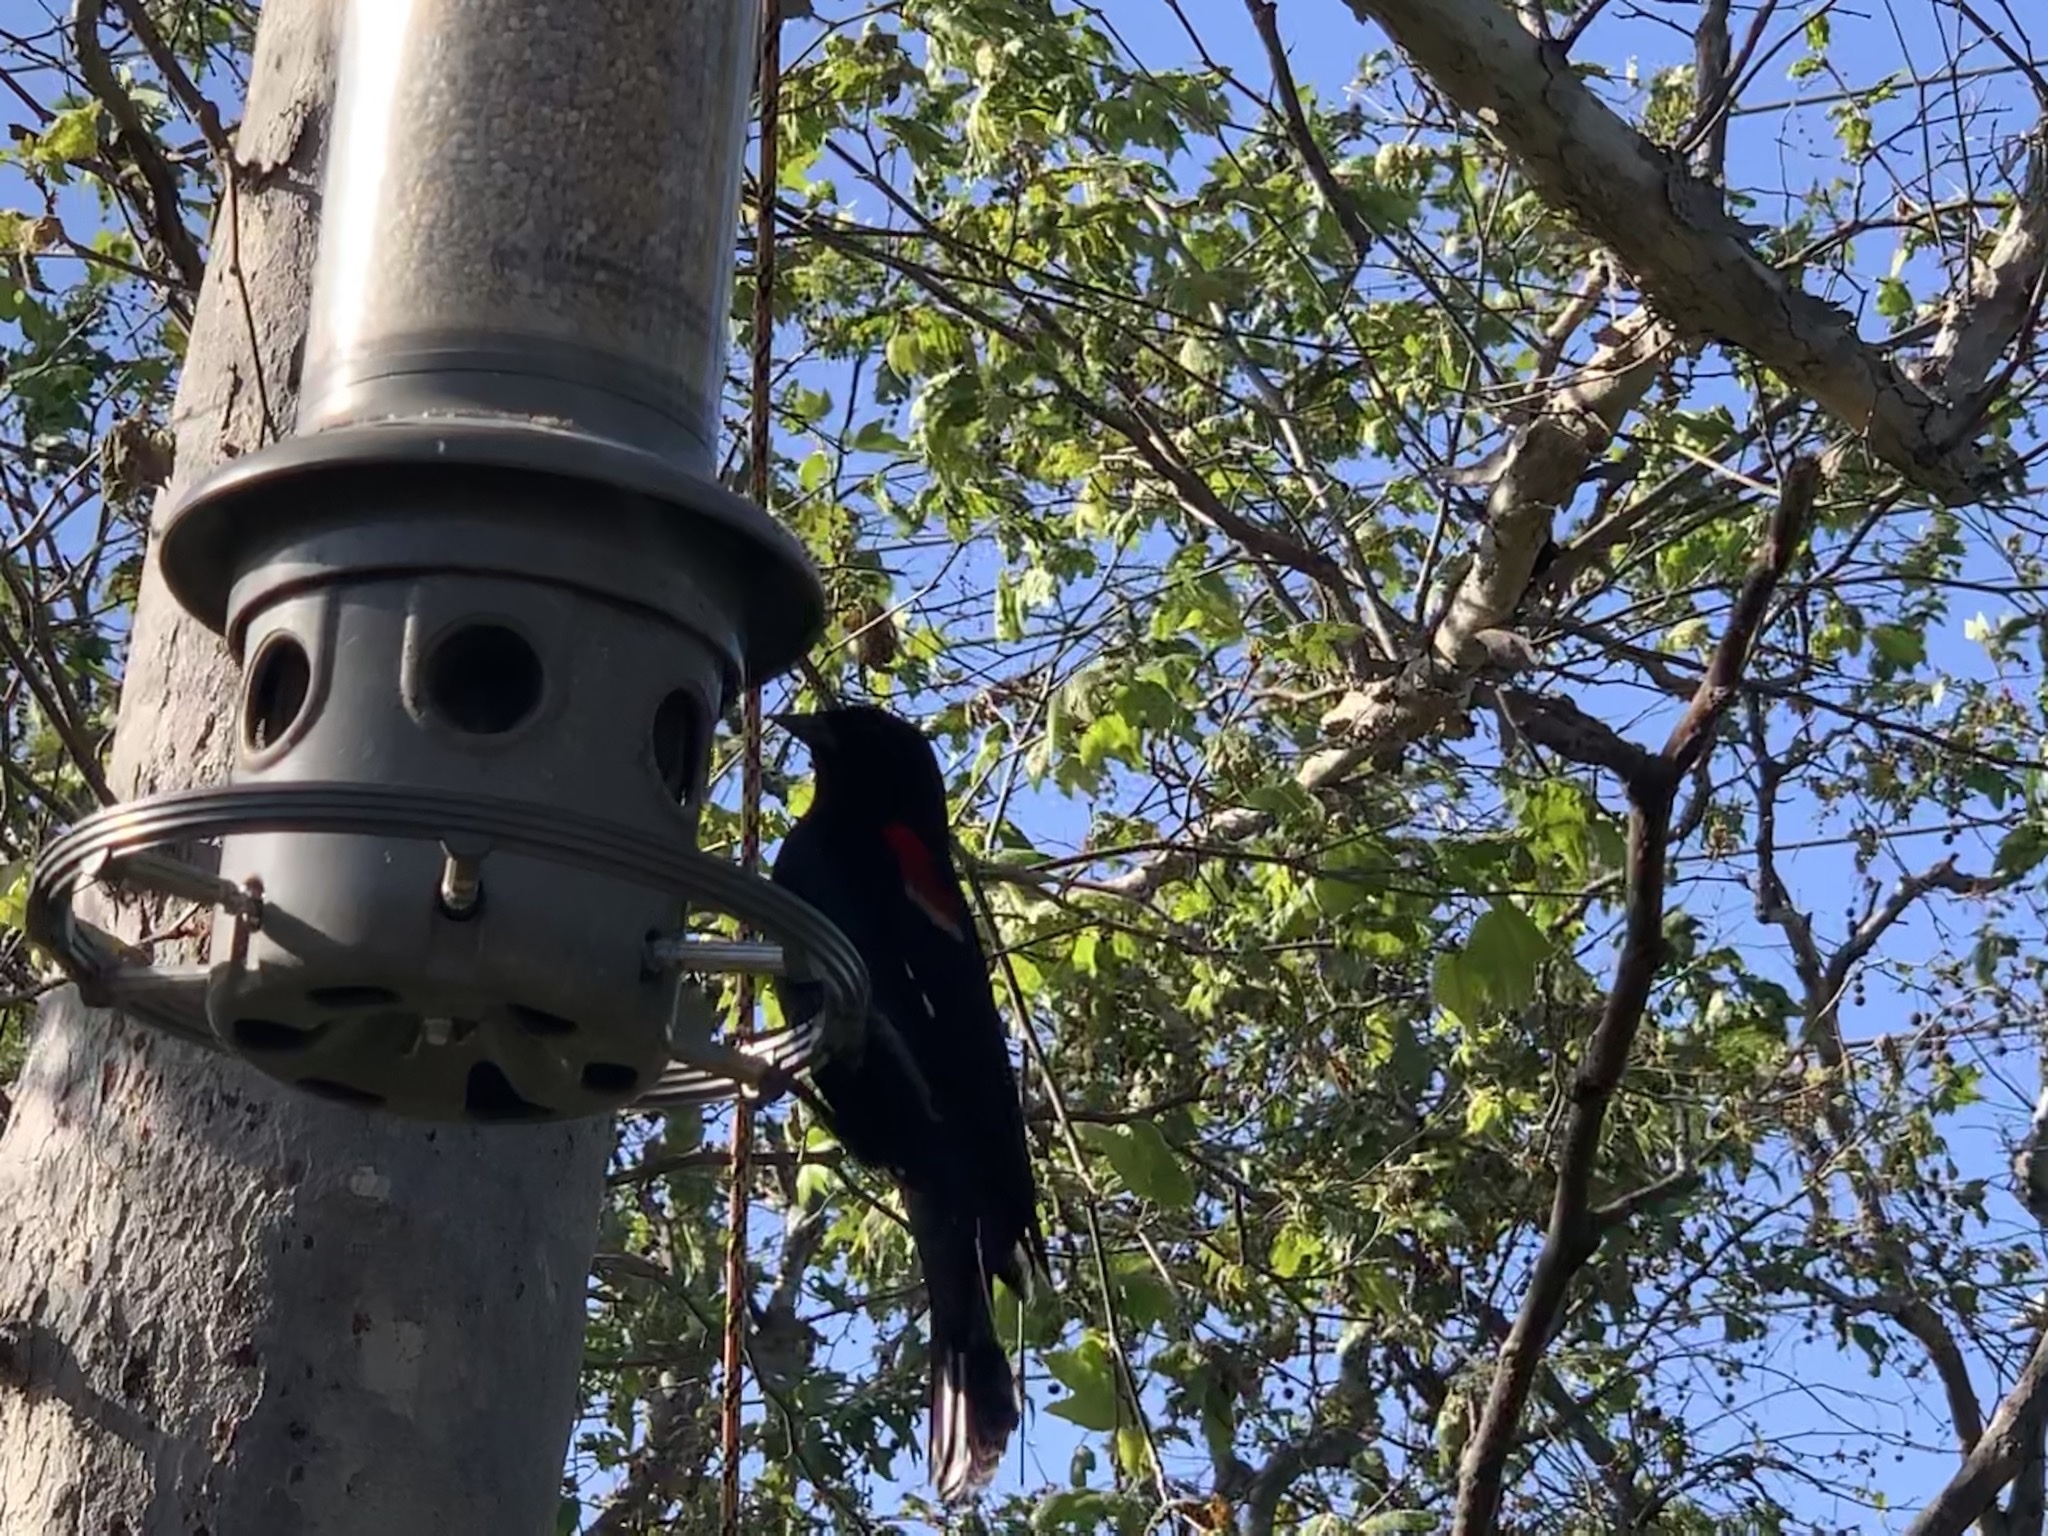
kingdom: Animalia
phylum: Chordata
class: Aves
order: Passeriformes
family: Icteridae
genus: Agelaius
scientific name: Agelaius phoeniceus
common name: Red-winged blackbird
